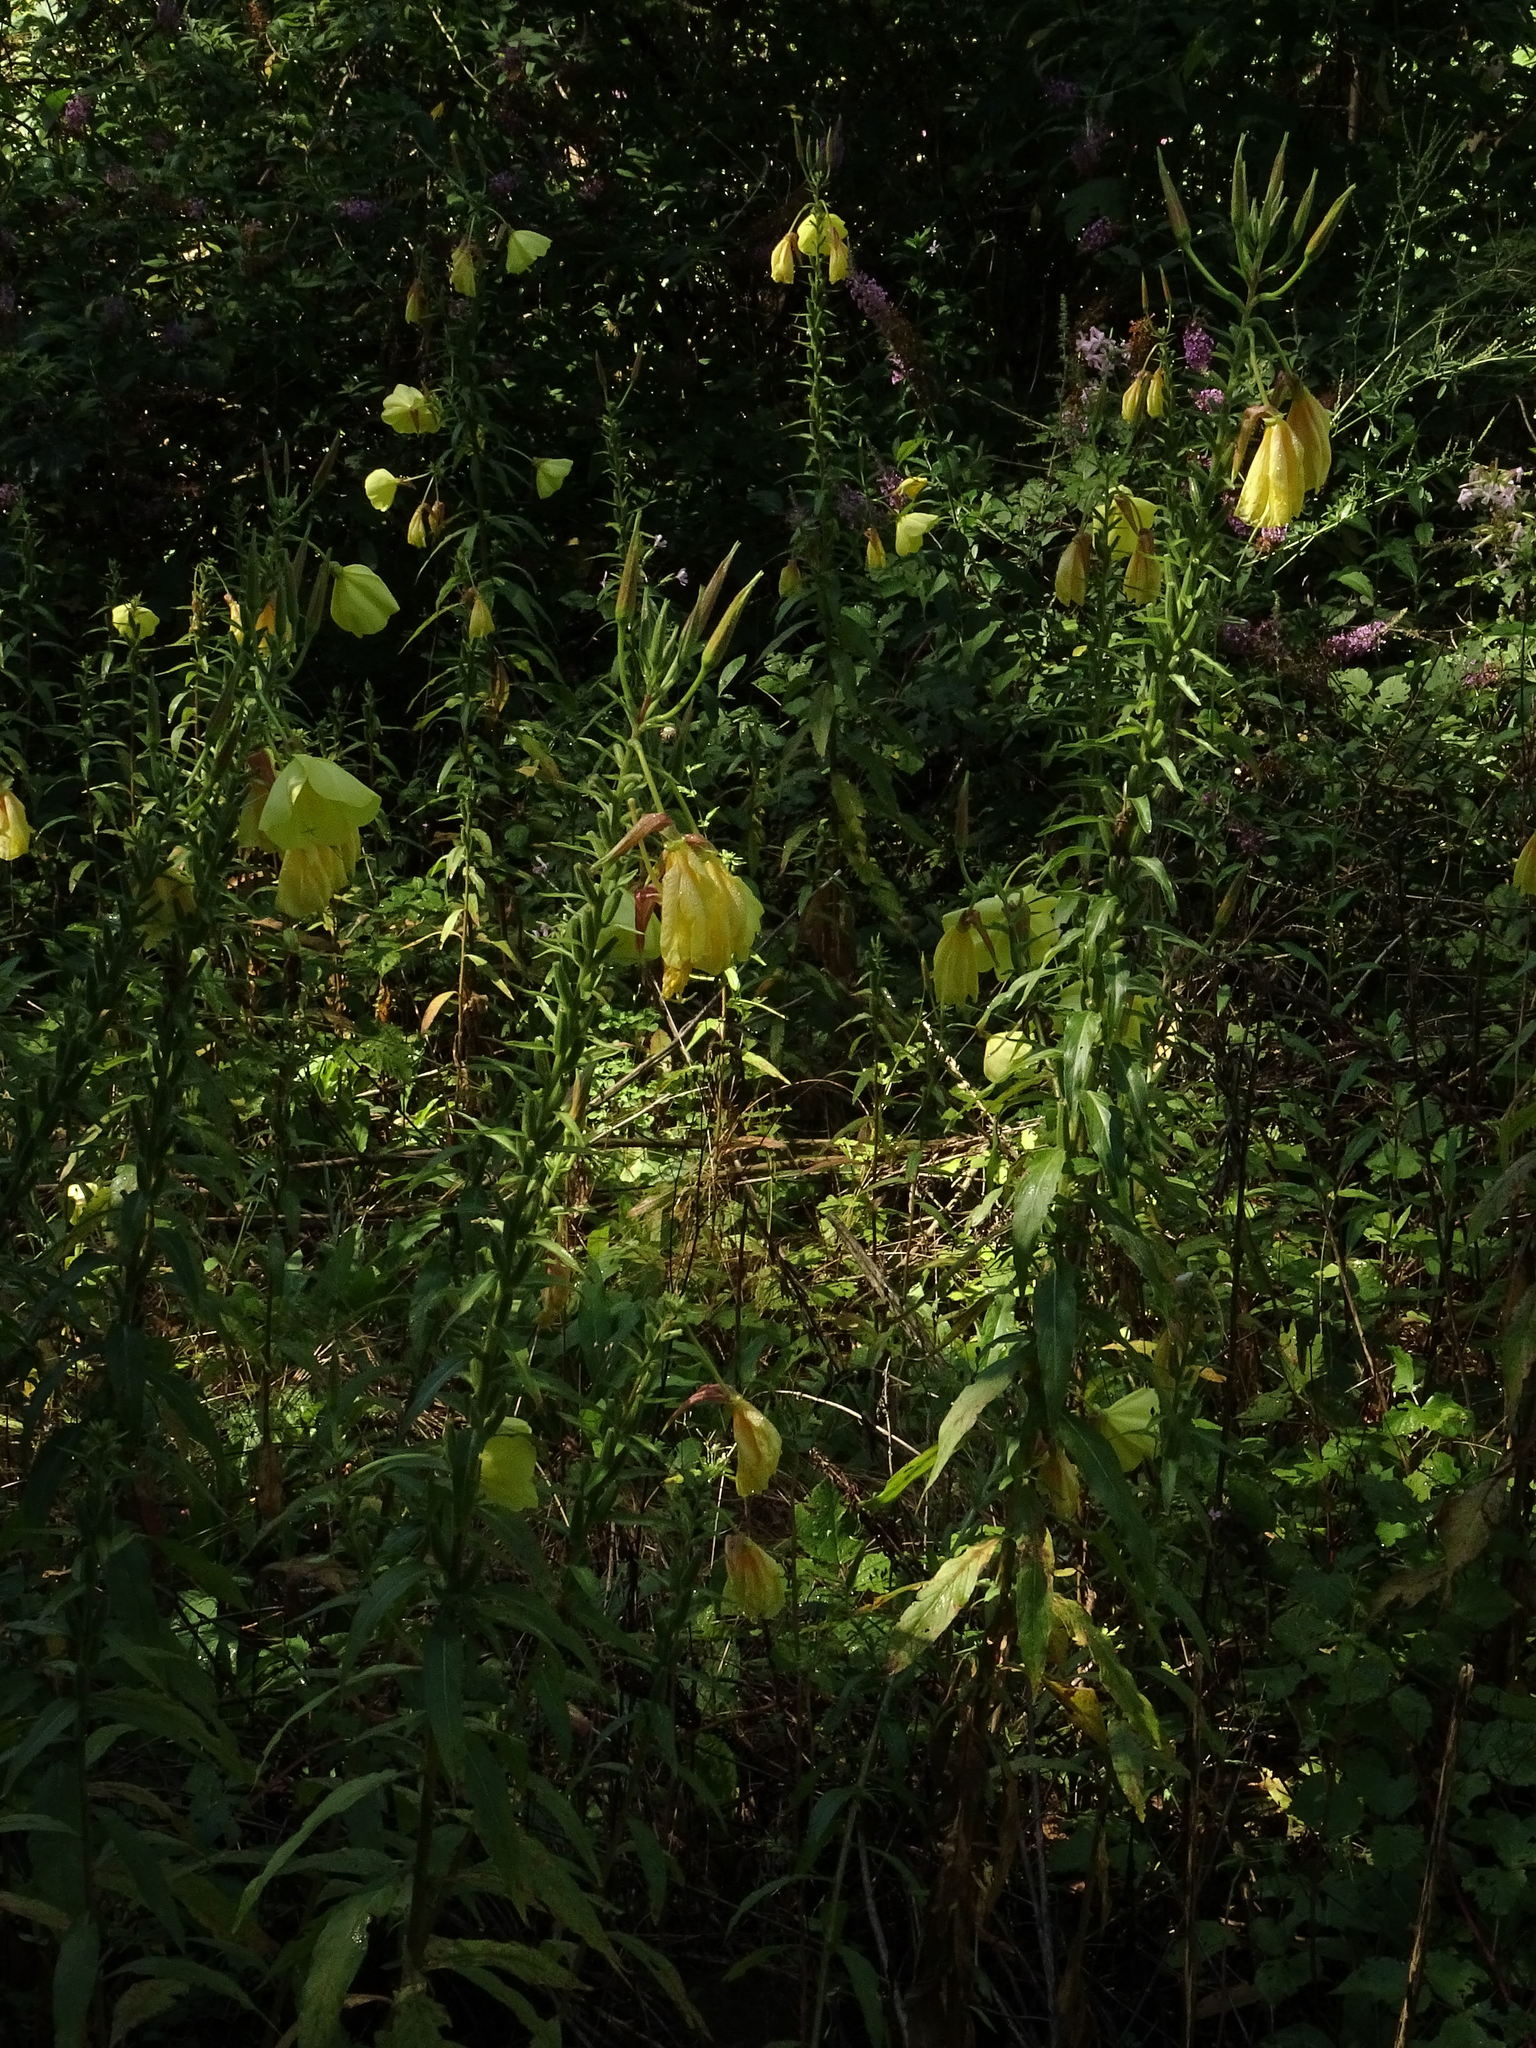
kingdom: Plantae
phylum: Tracheophyta
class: Magnoliopsida
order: Myrtales
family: Onagraceae
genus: Oenothera
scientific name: Oenothera glazioviana
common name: Large-flowered evening-primrose
